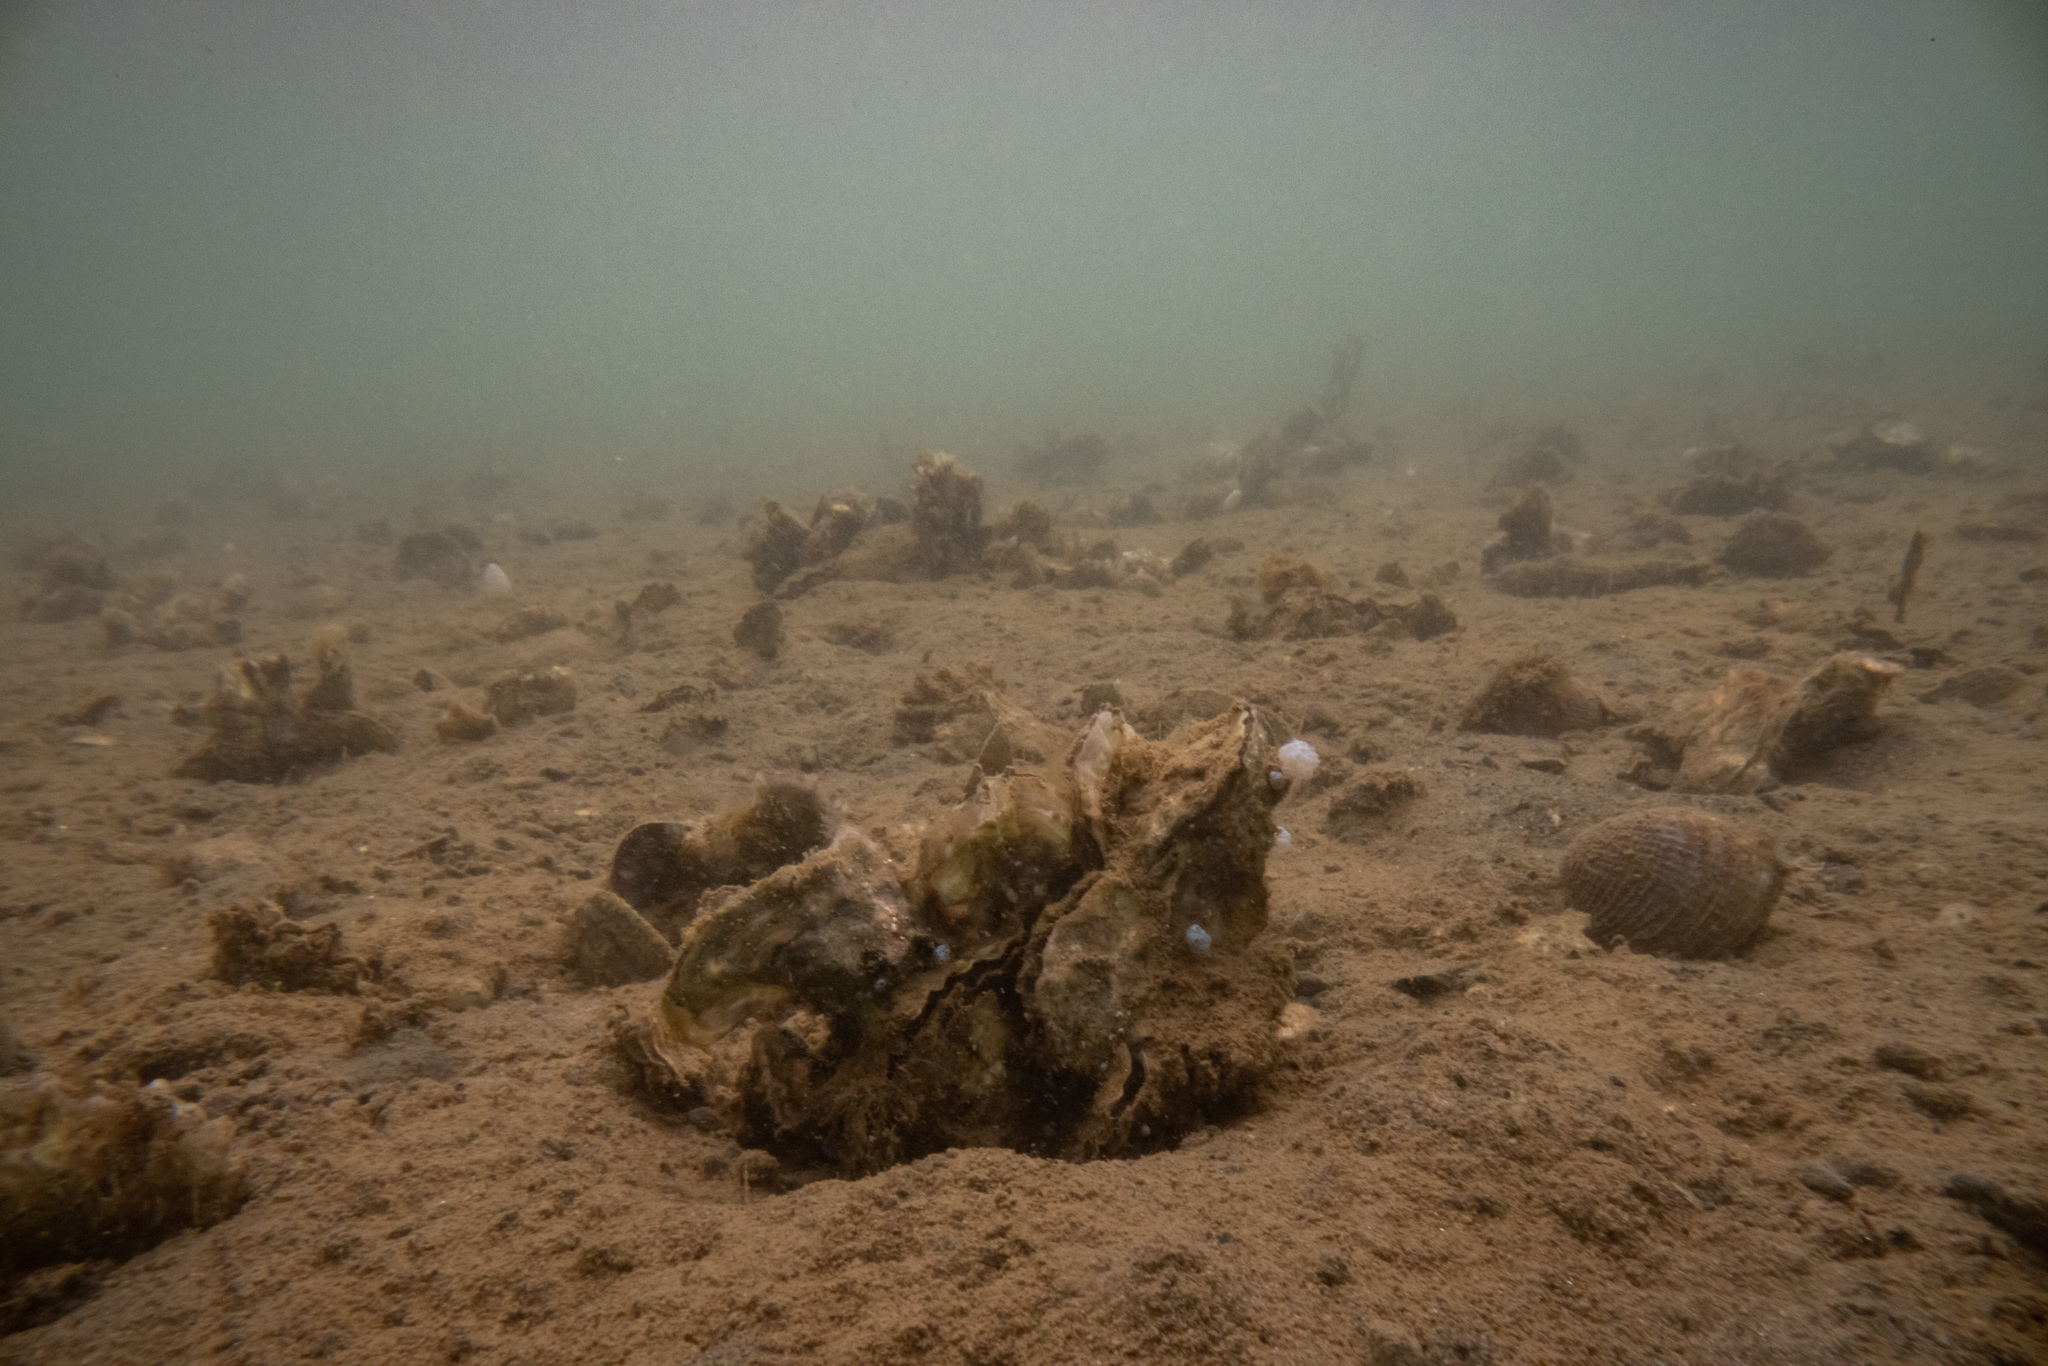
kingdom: Animalia
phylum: Mollusca
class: Bivalvia
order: Ostreida
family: Ostreidae
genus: Magallana
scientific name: Magallana gigas
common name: Pacific oyster
